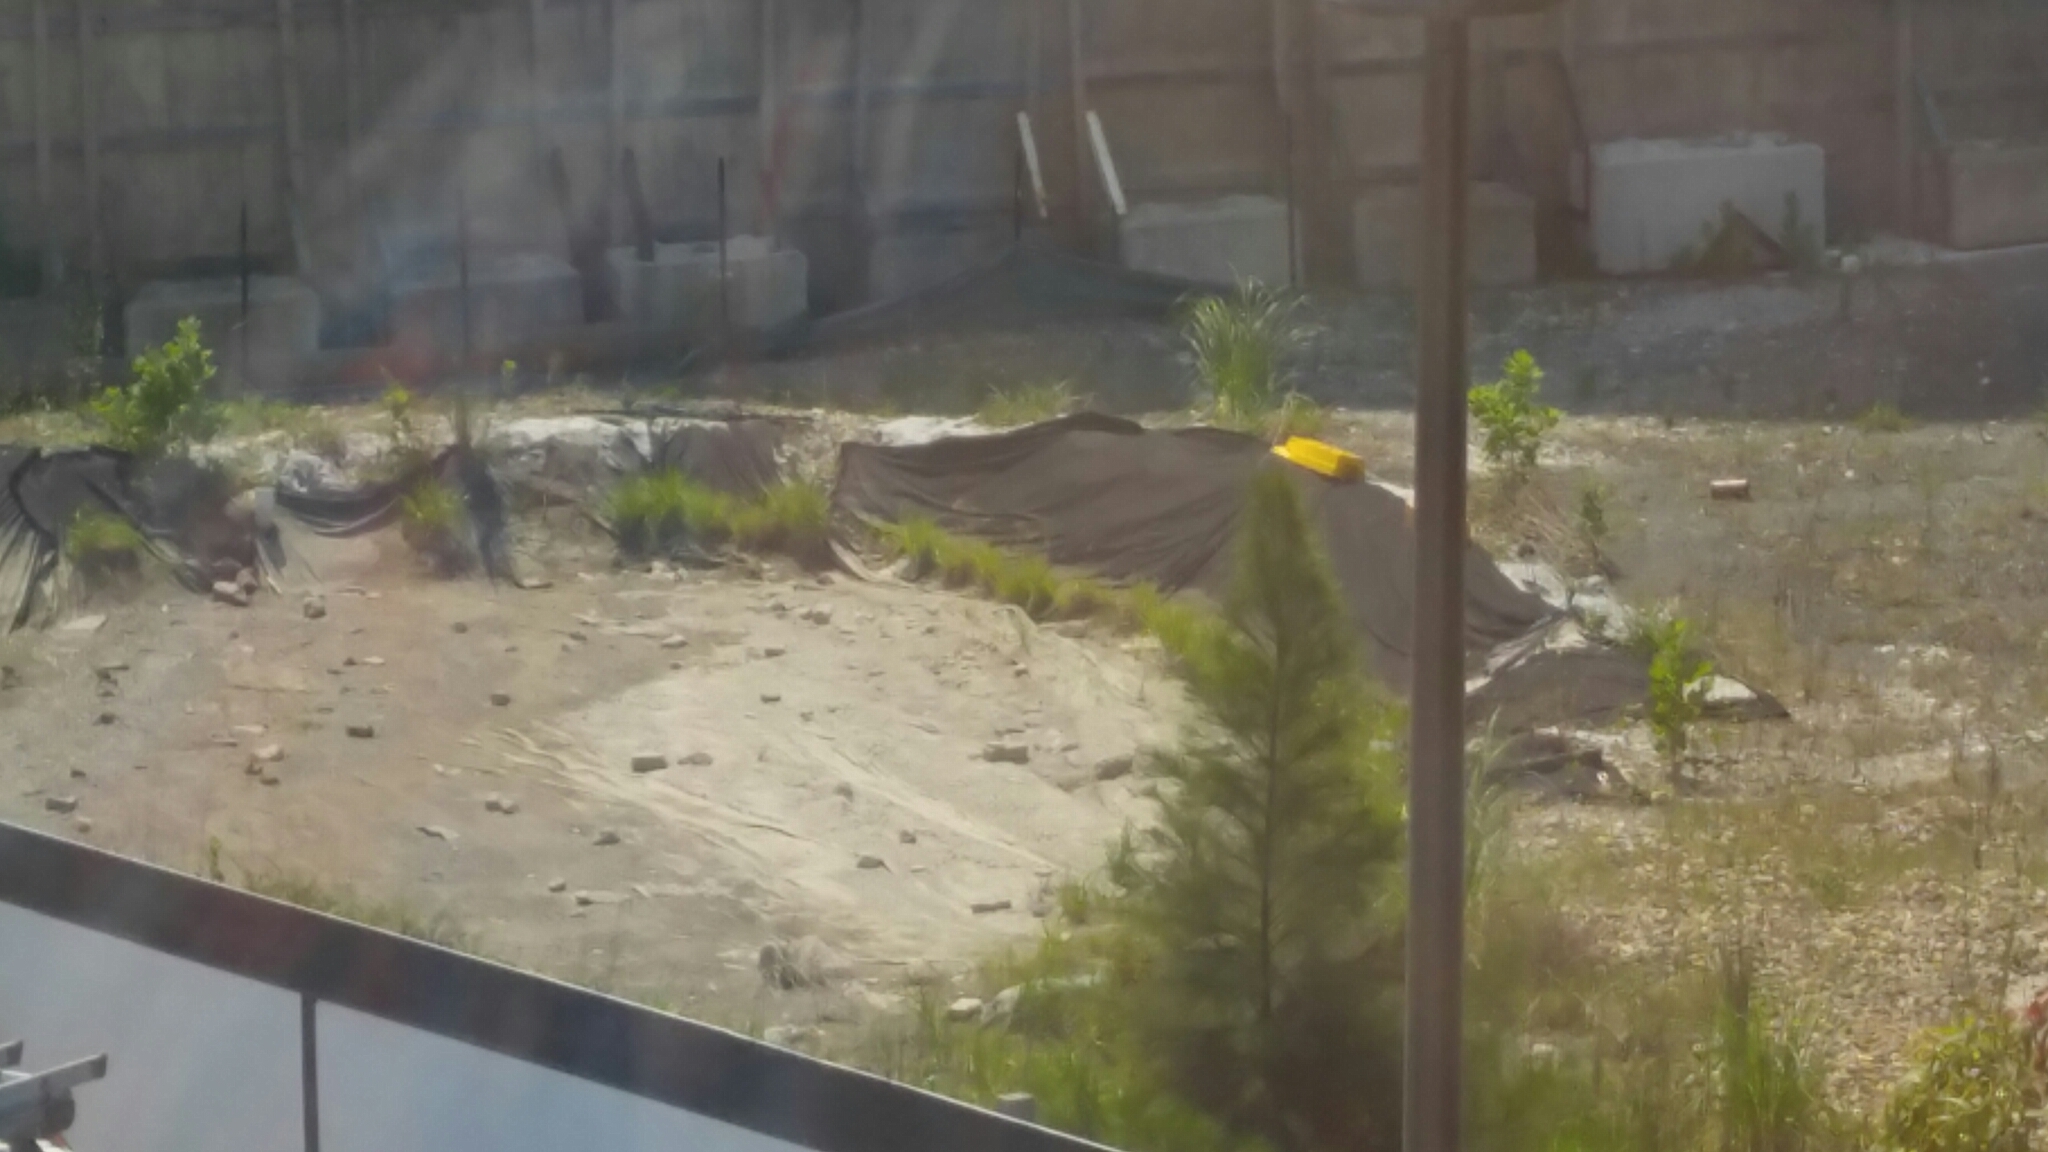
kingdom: Animalia
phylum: Chordata
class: Aves
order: Charadriiformes
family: Charadriidae
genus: Vanellus
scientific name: Vanellus miles
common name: Masked lapwing
